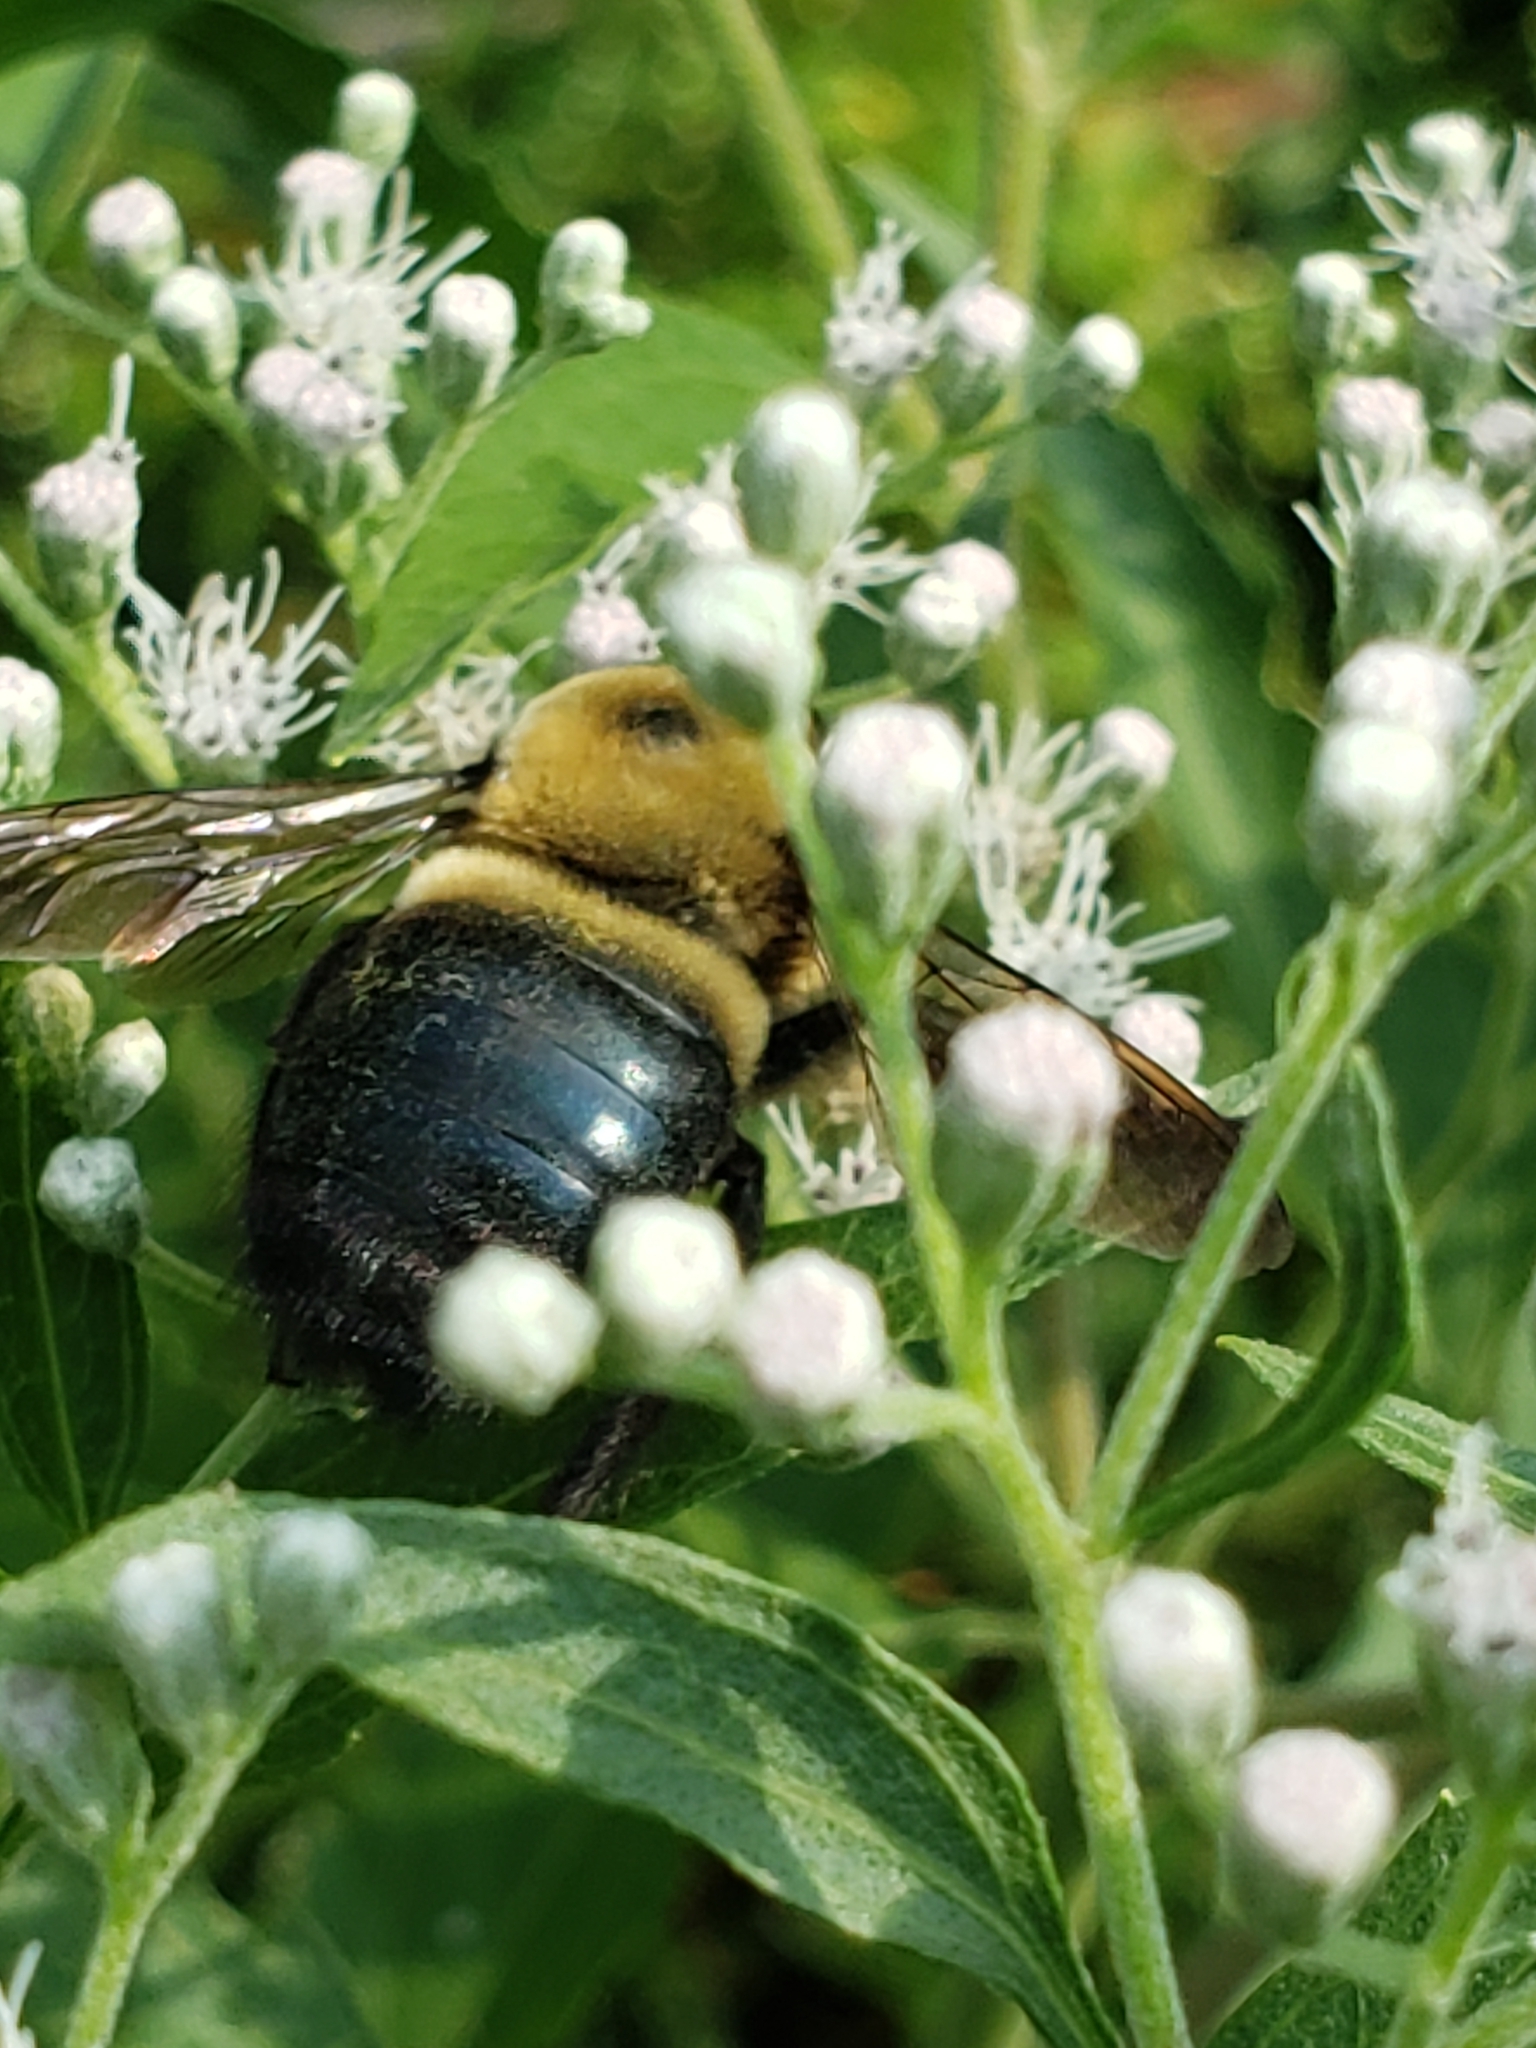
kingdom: Animalia
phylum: Arthropoda
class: Insecta
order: Hymenoptera
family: Apidae
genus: Xylocopa
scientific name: Xylocopa virginica
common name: Carpenter bee
